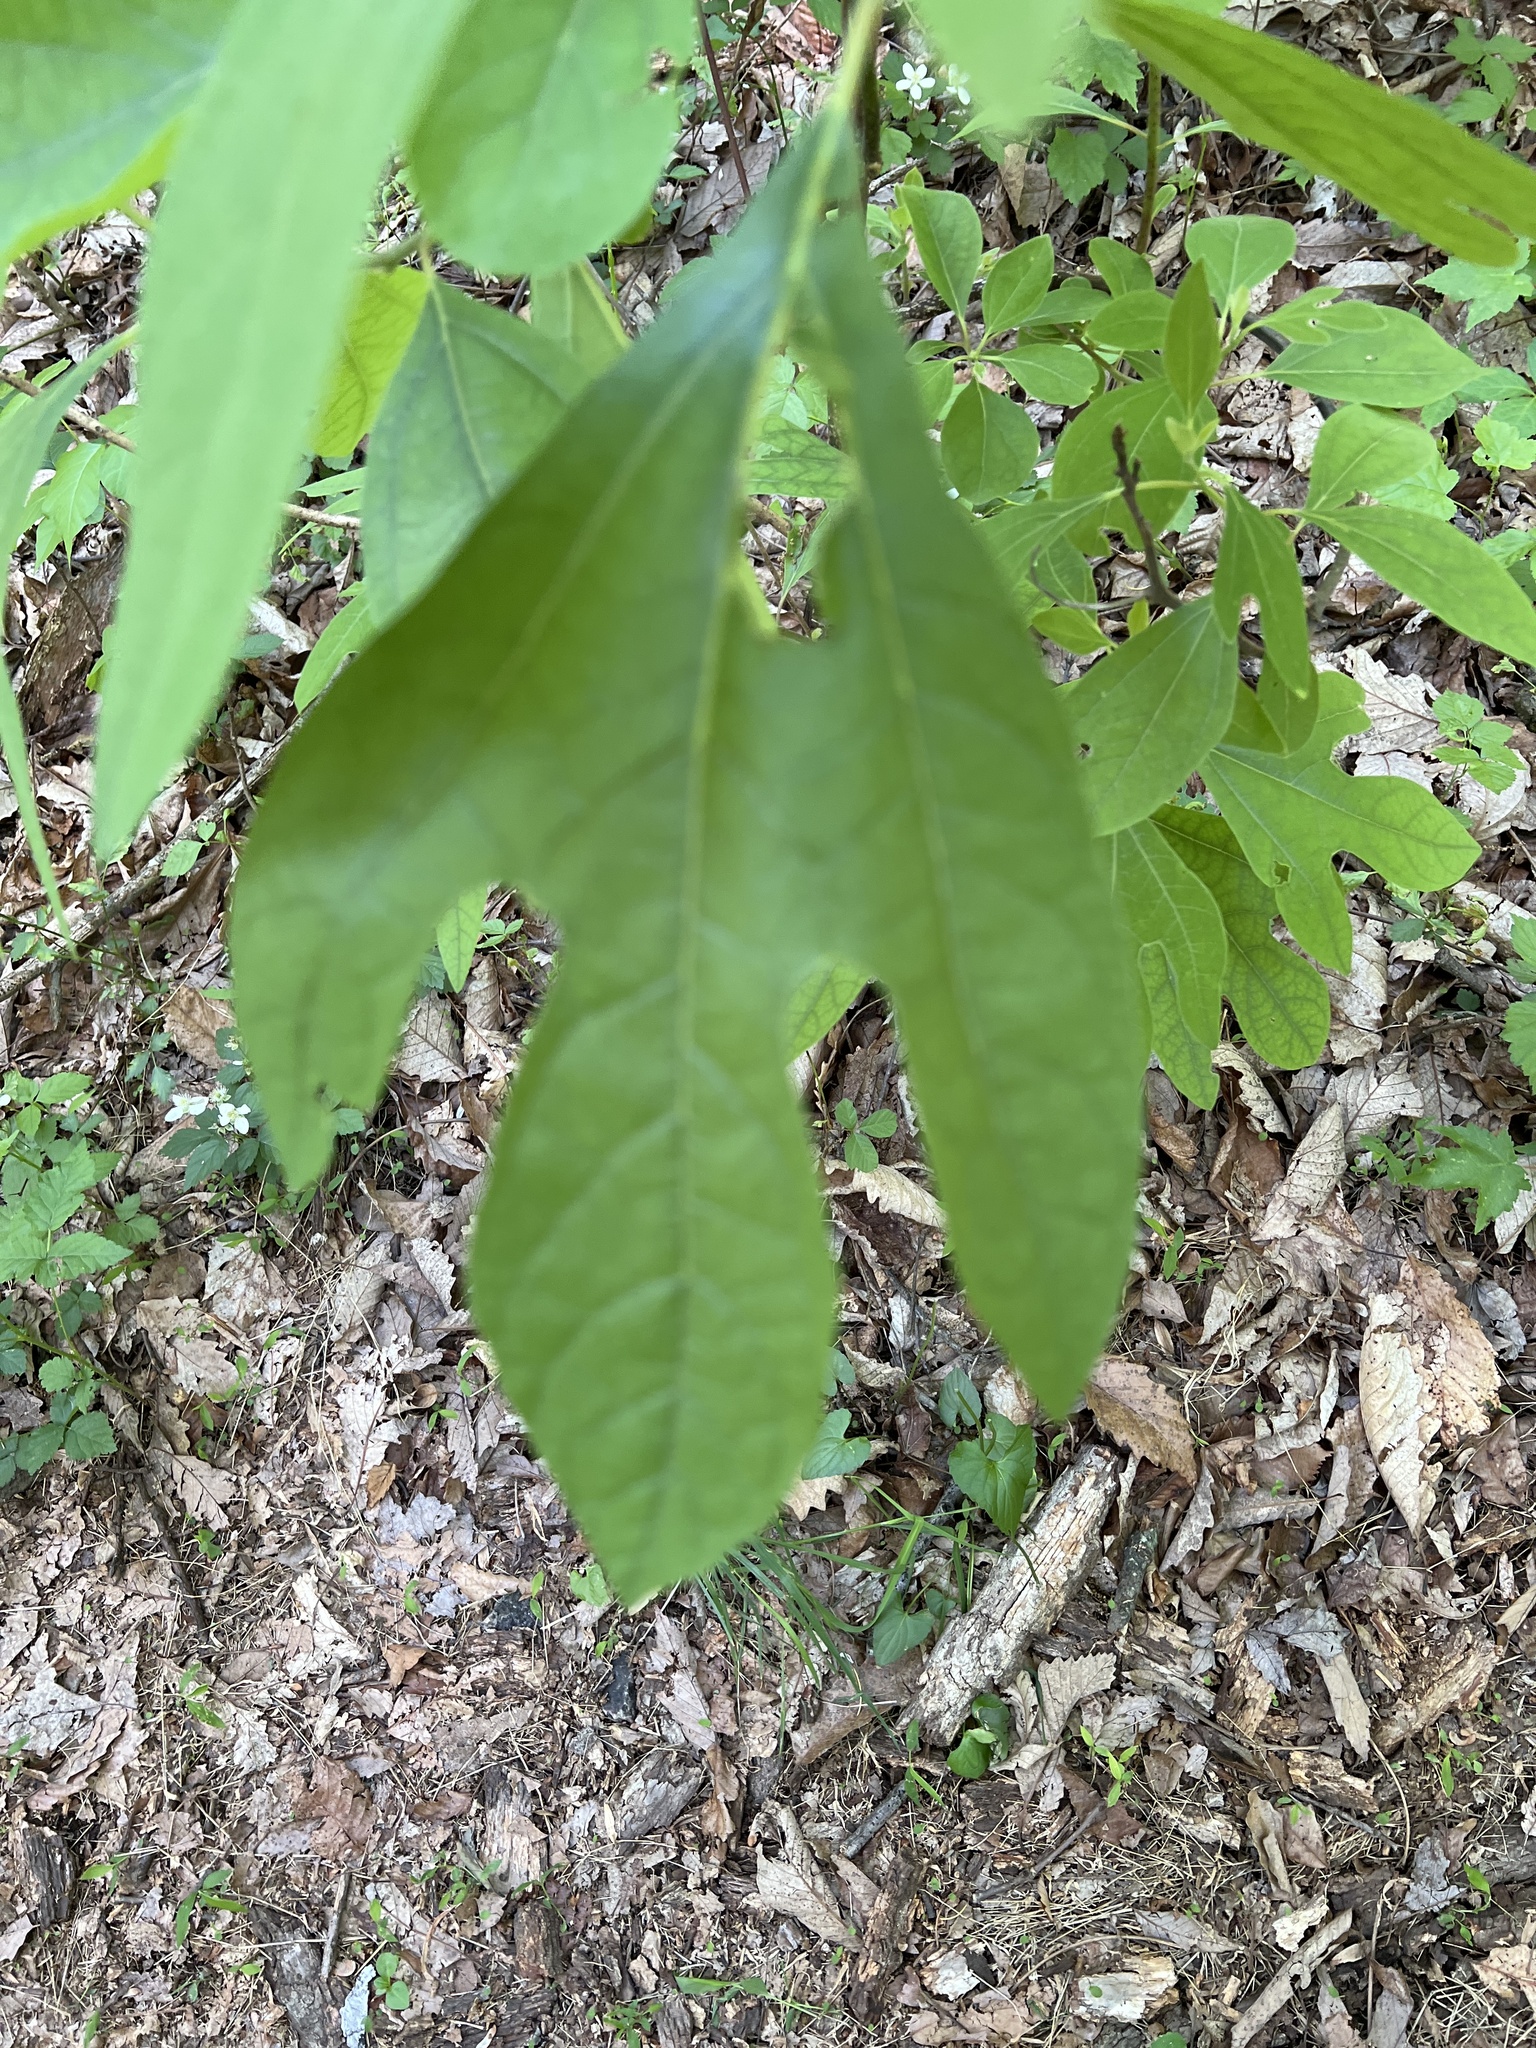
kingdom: Plantae
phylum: Tracheophyta
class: Magnoliopsida
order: Laurales
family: Lauraceae
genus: Sassafras
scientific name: Sassafras albidum
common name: Sassafras
